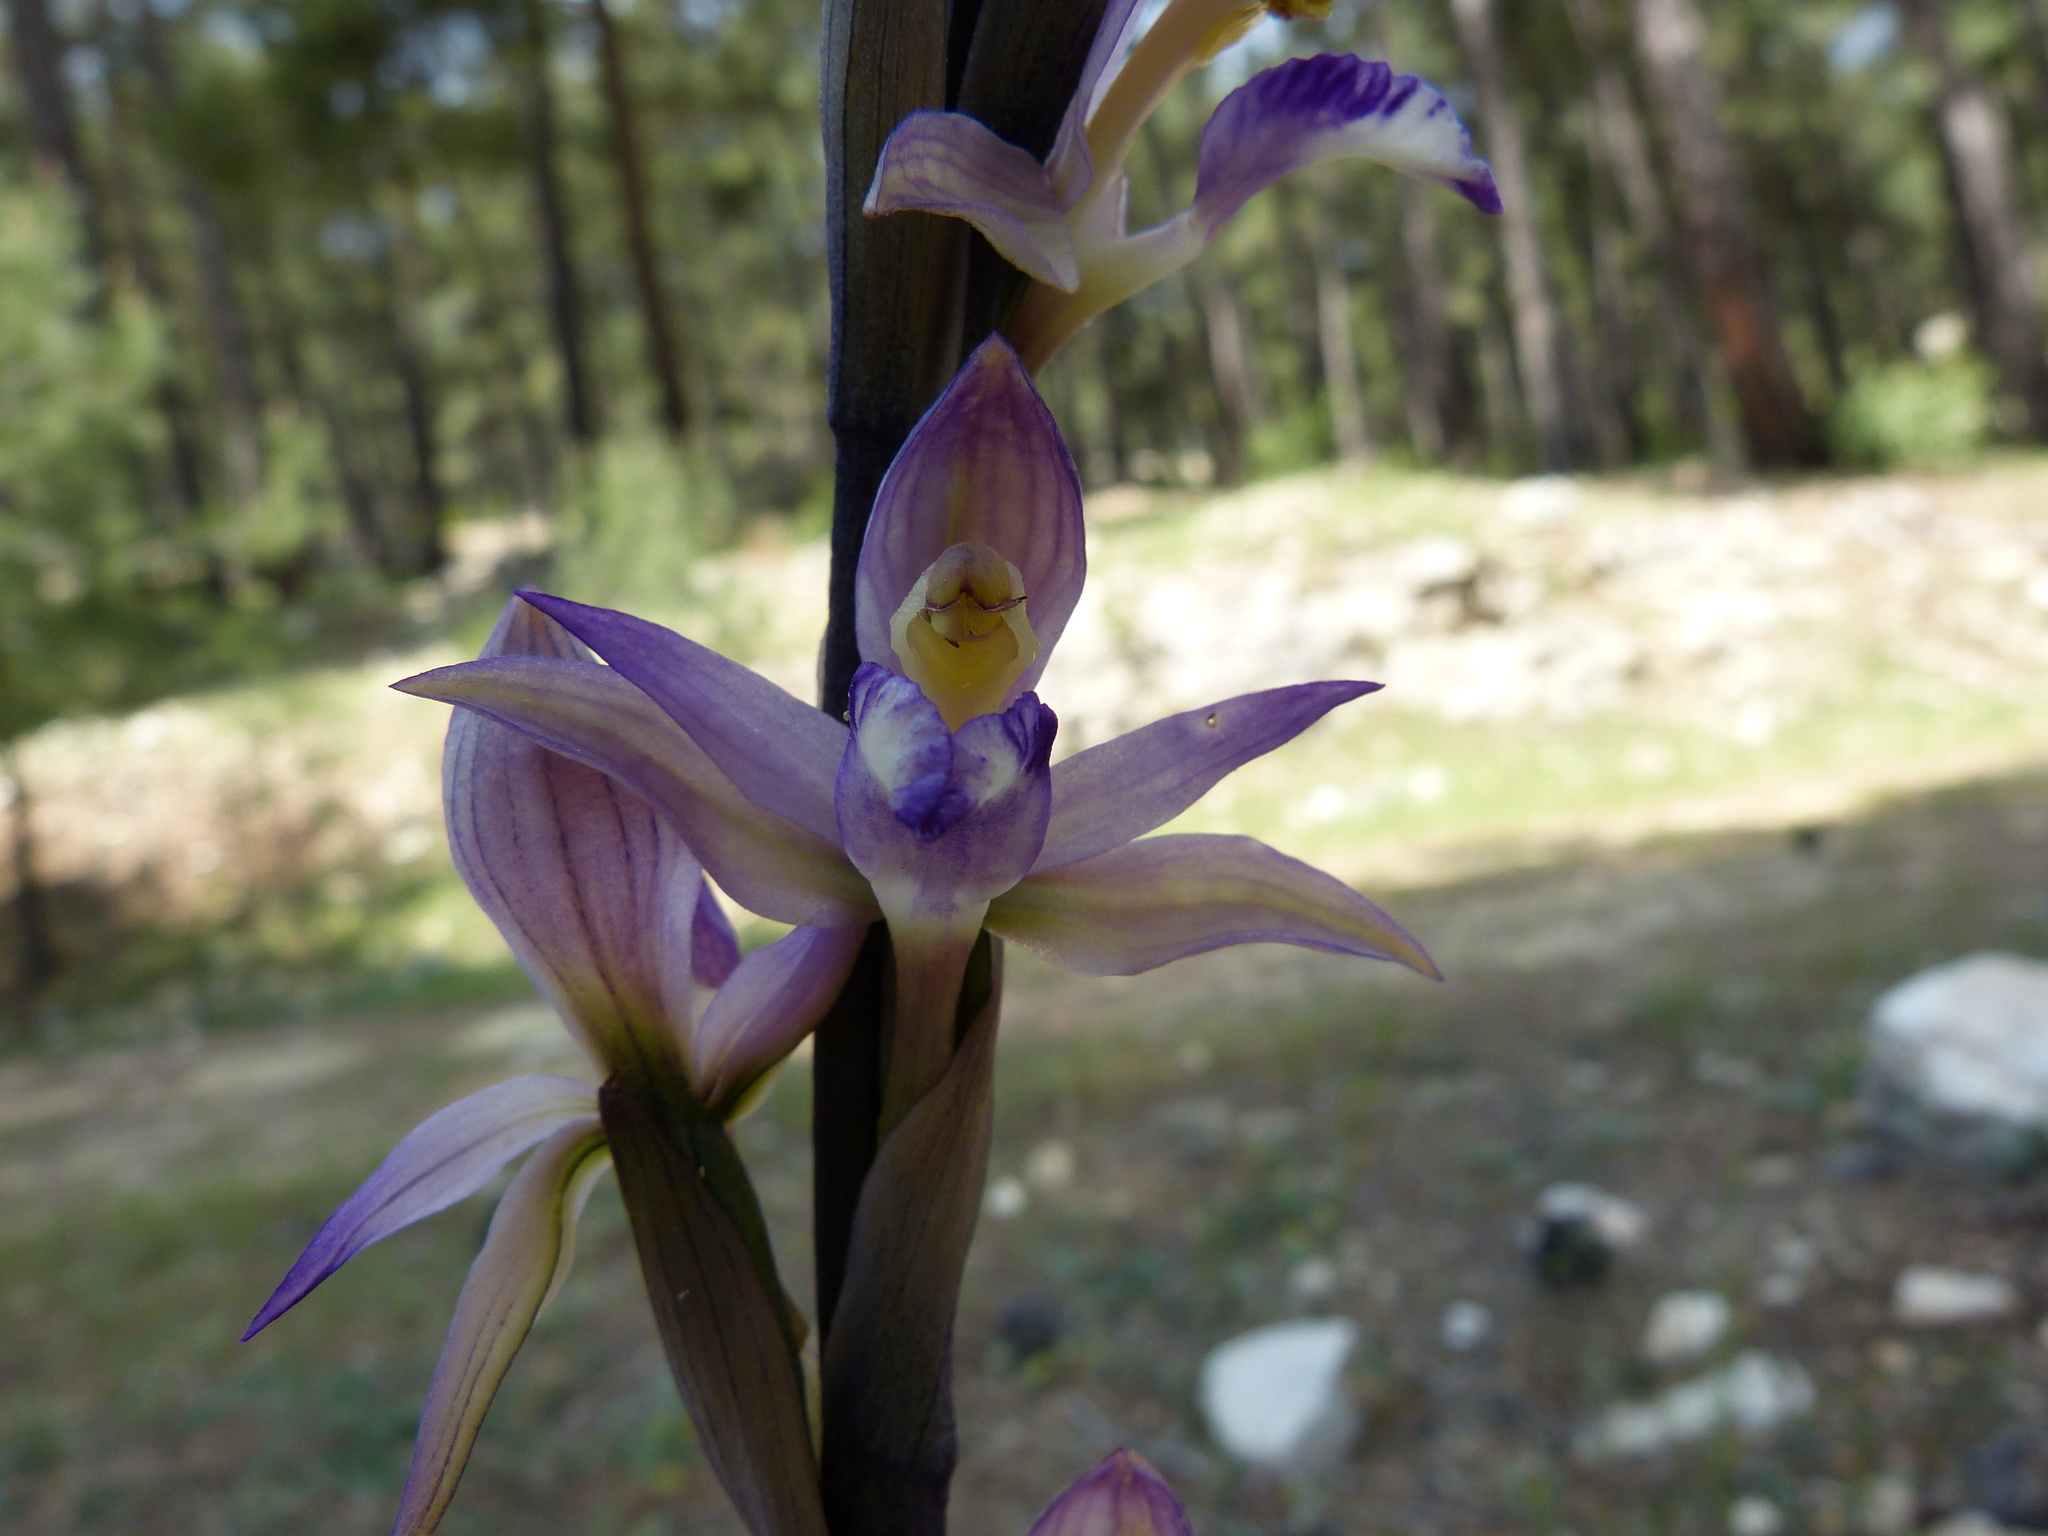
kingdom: Plantae
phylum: Tracheophyta
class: Liliopsida
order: Asparagales
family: Orchidaceae
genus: Limodorum
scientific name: Limodorum abortivum
